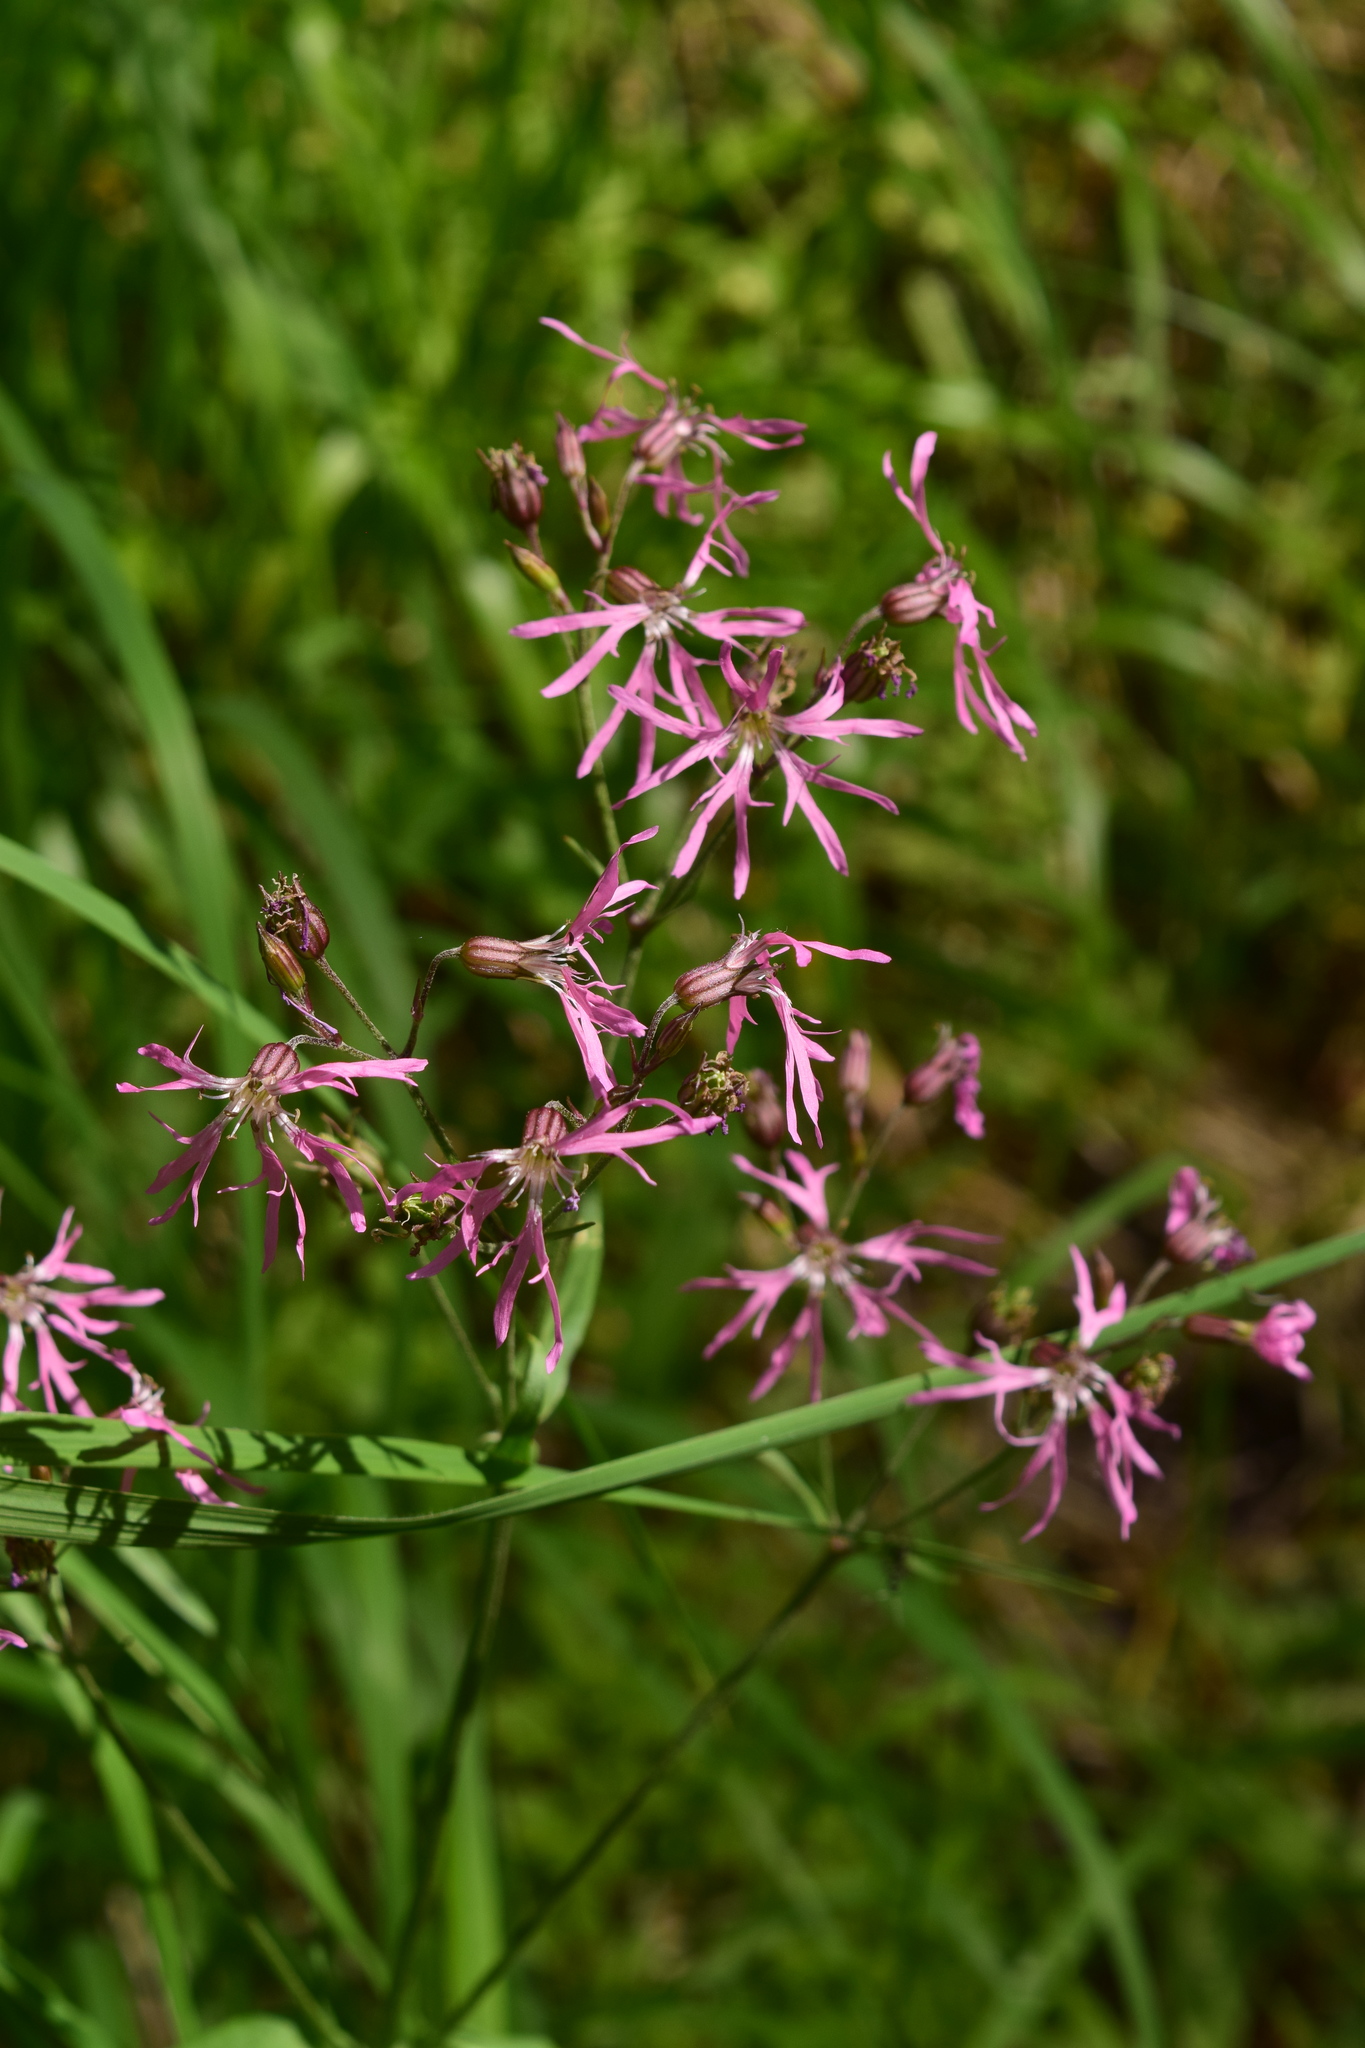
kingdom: Plantae
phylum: Tracheophyta
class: Magnoliopsida
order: Caryophyllales
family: Caryophyllaceae
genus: Silene
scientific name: Silene flos-cuculi
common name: Ragged-robin
